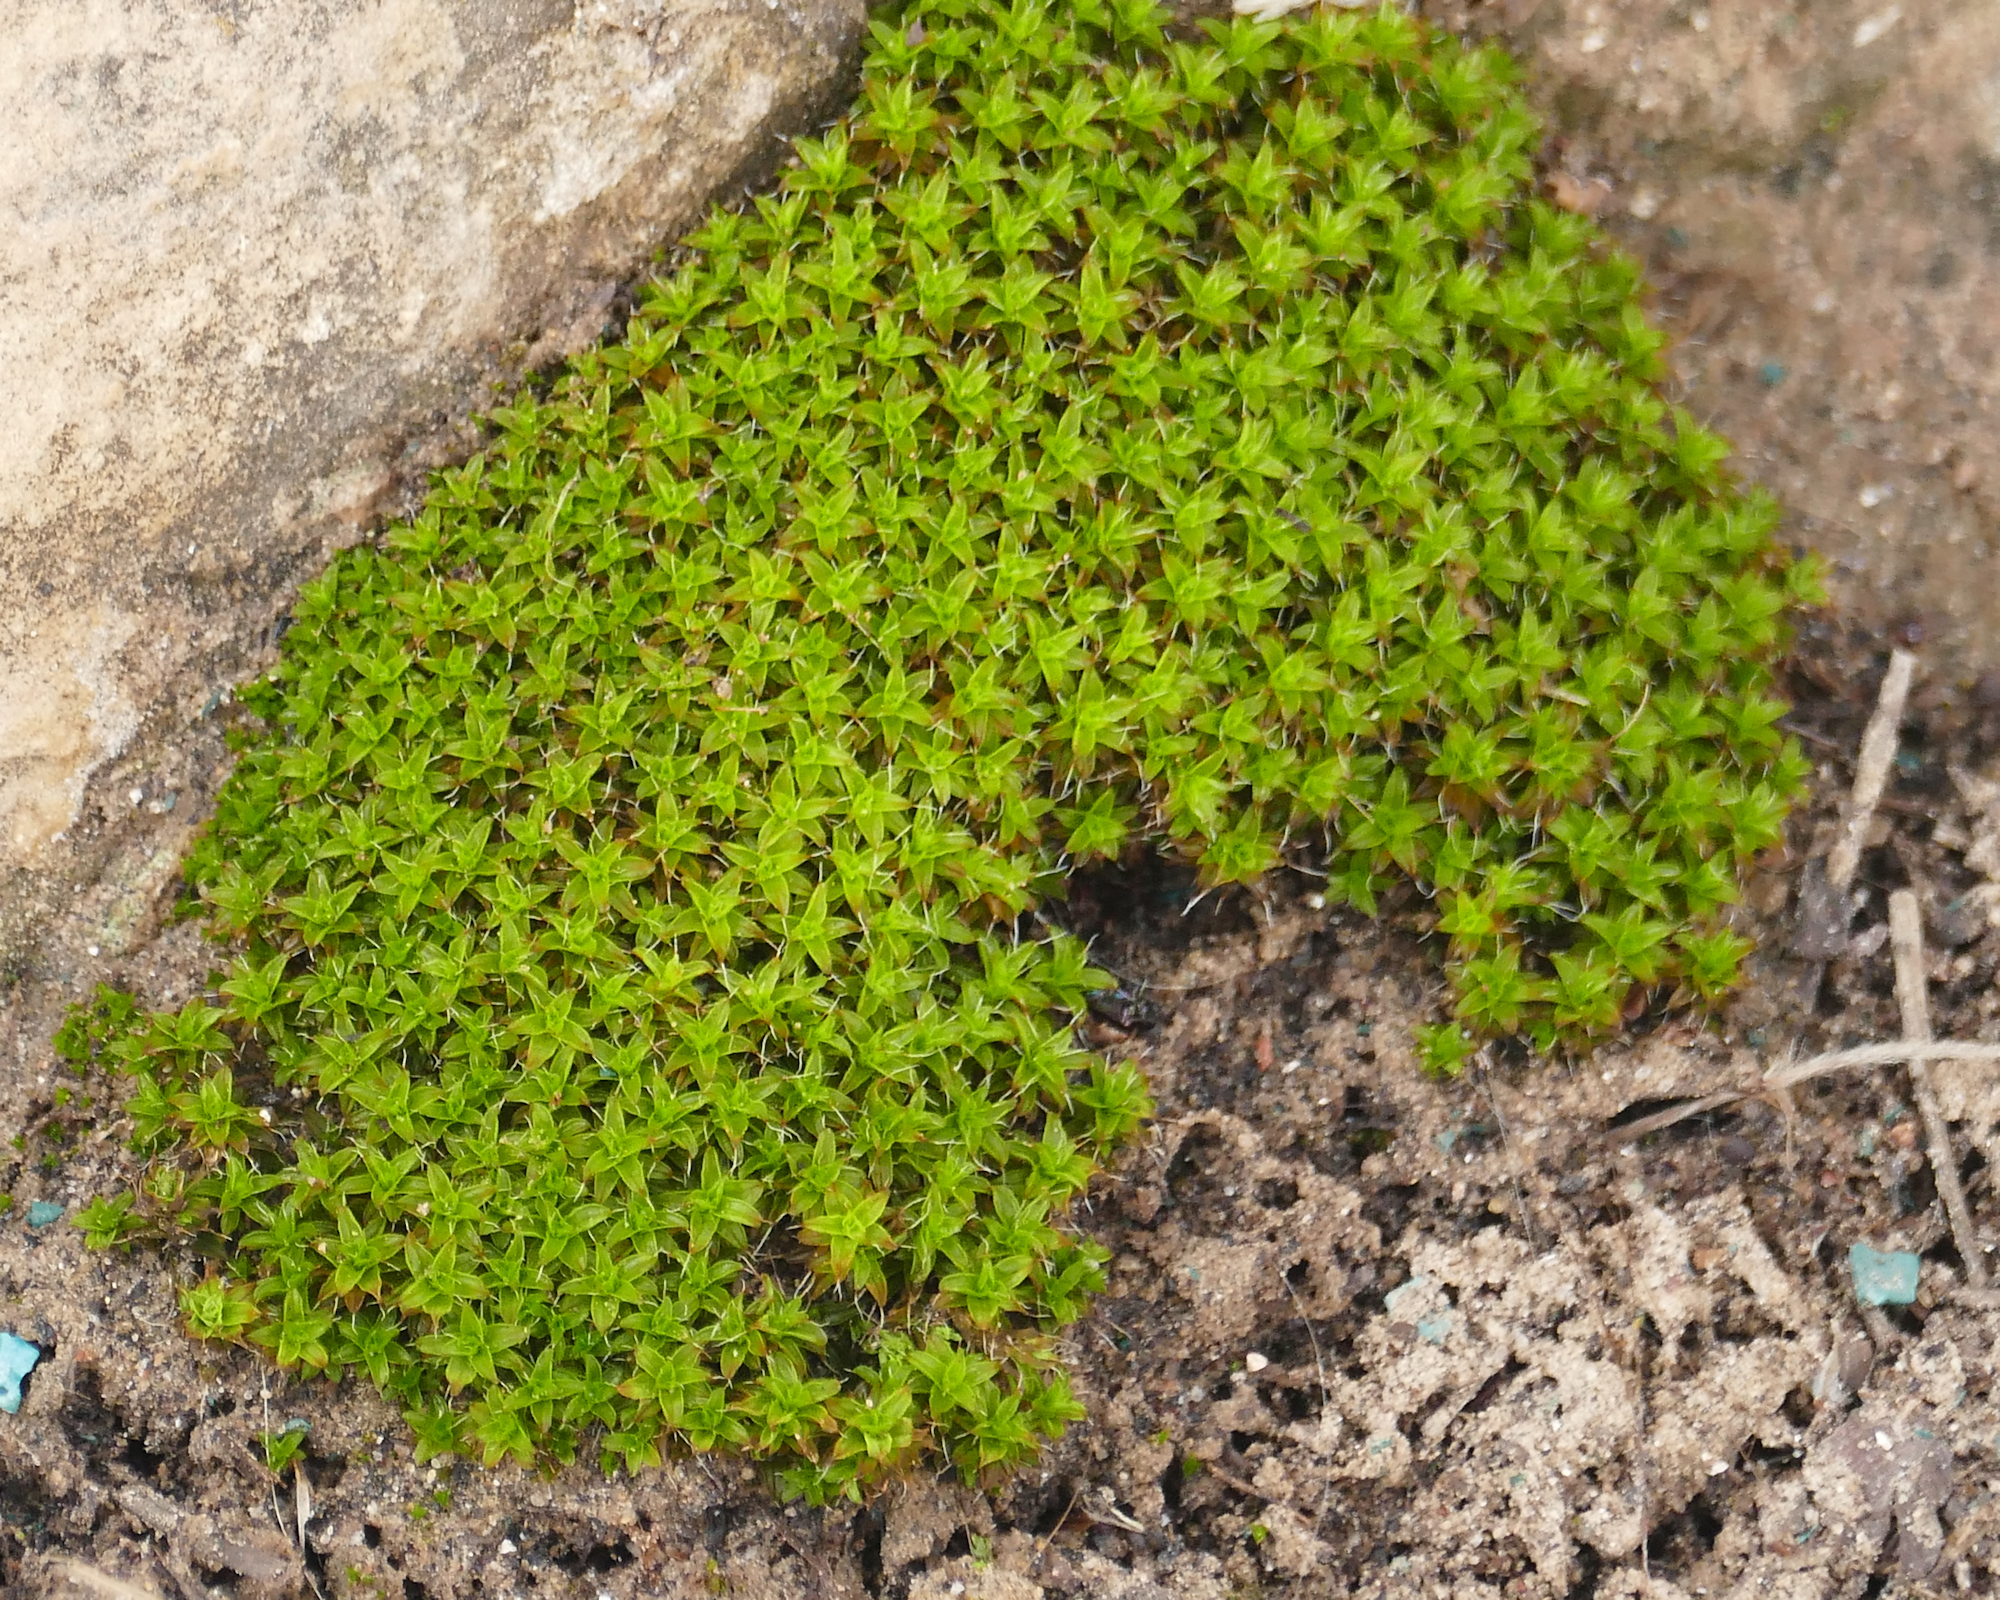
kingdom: Plantae
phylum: Bryophyta
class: Bryopsida
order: Pottiales
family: Pottiaceae
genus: Syntrichia
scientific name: Syntrichia
